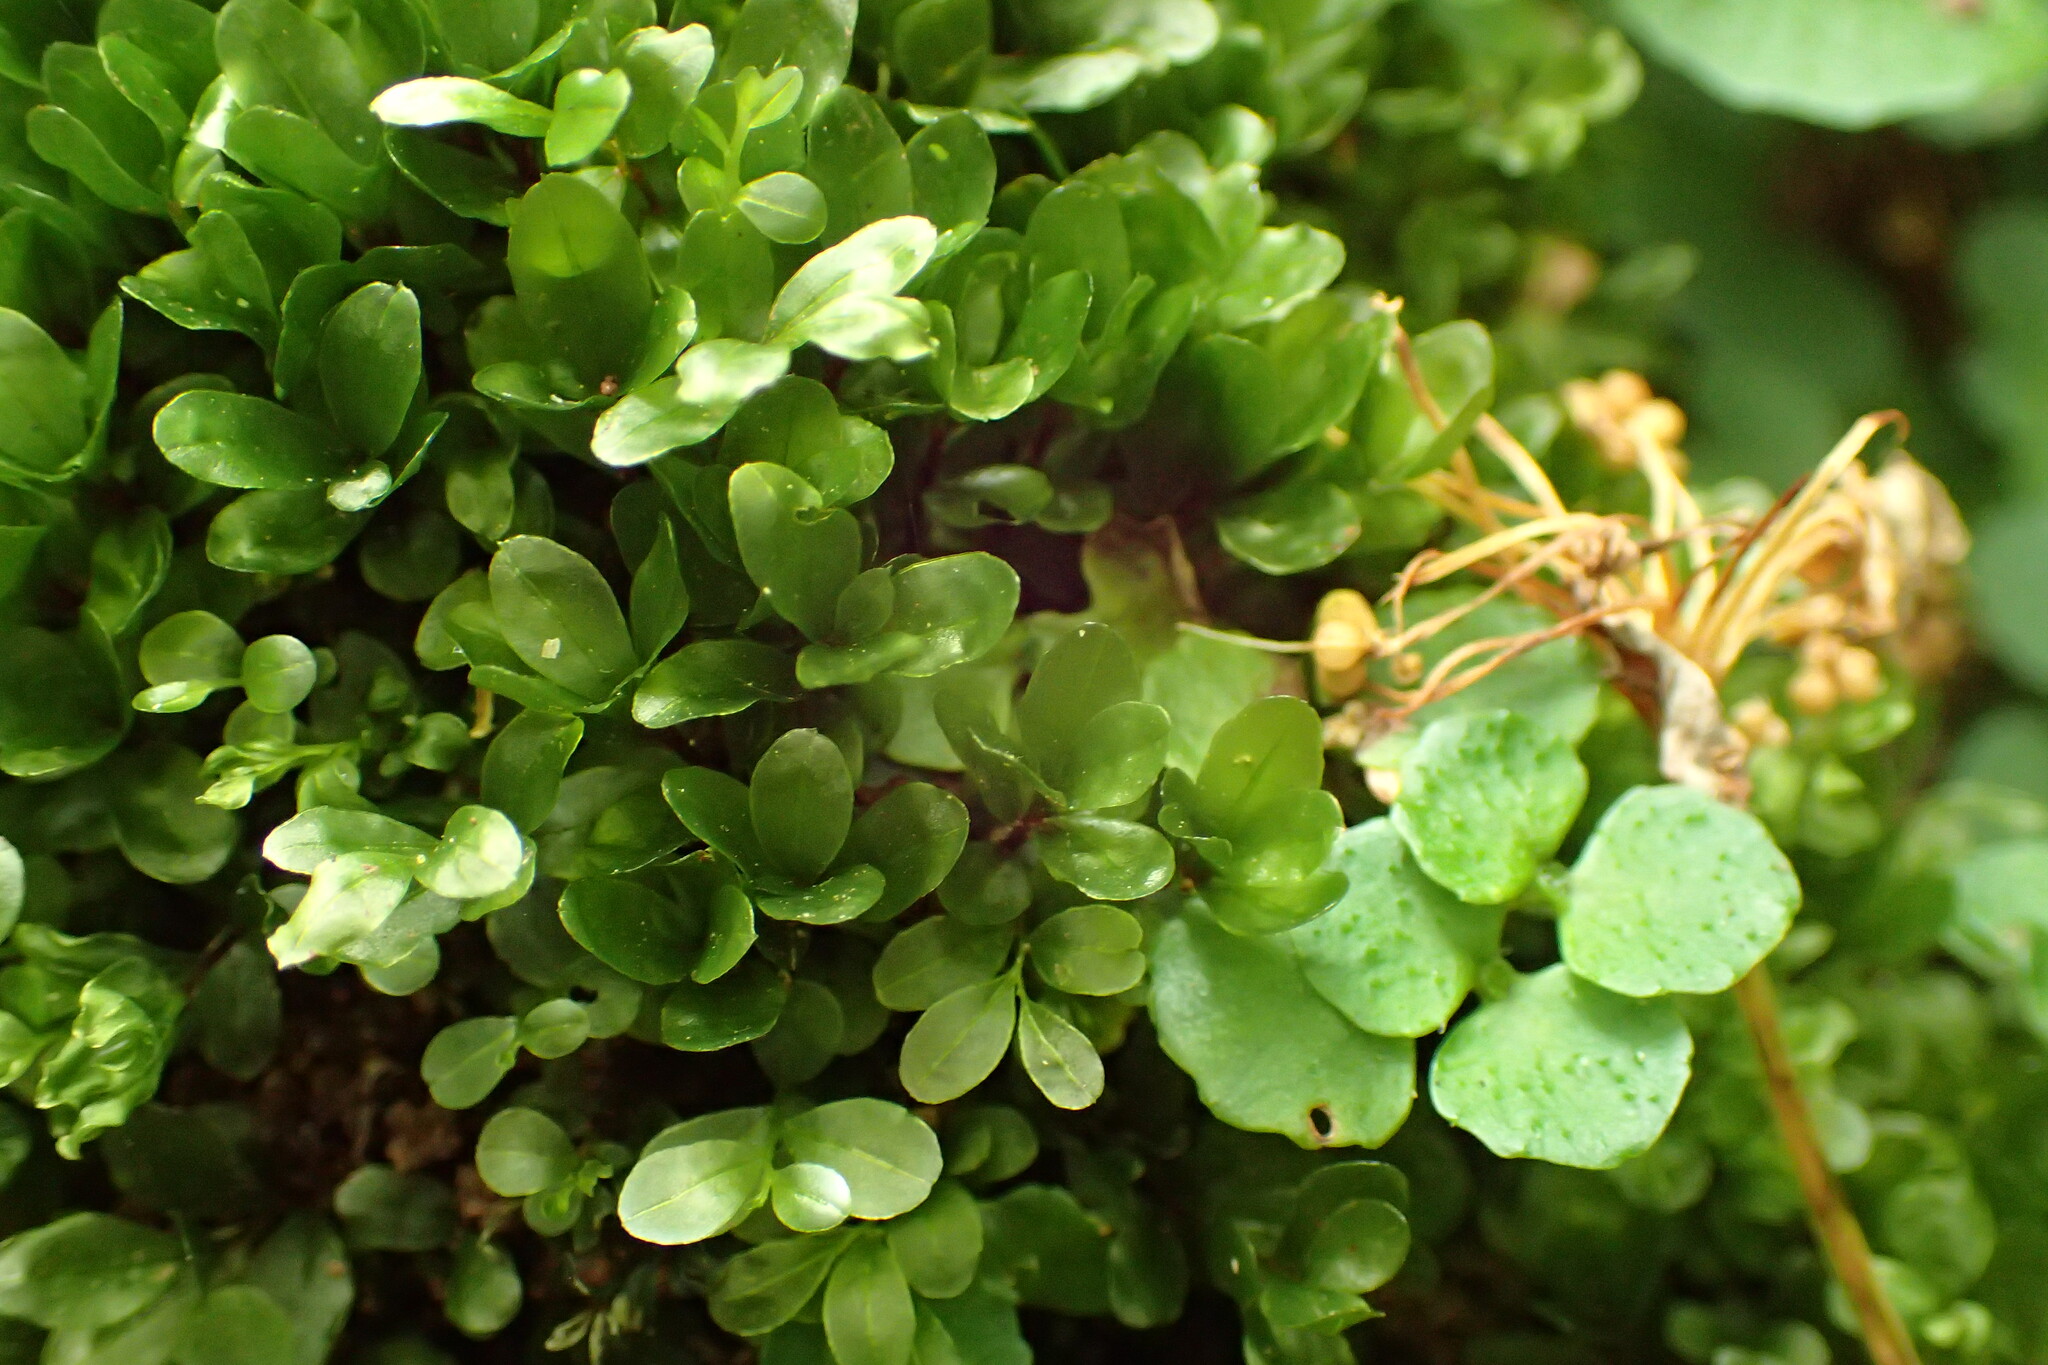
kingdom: Plantae
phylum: Bryophyta
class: Bryopsida
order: Bryales
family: Mniaceae
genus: Rhizomnium
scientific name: Rhizomnium punctatum
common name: Dotted leafy moss
